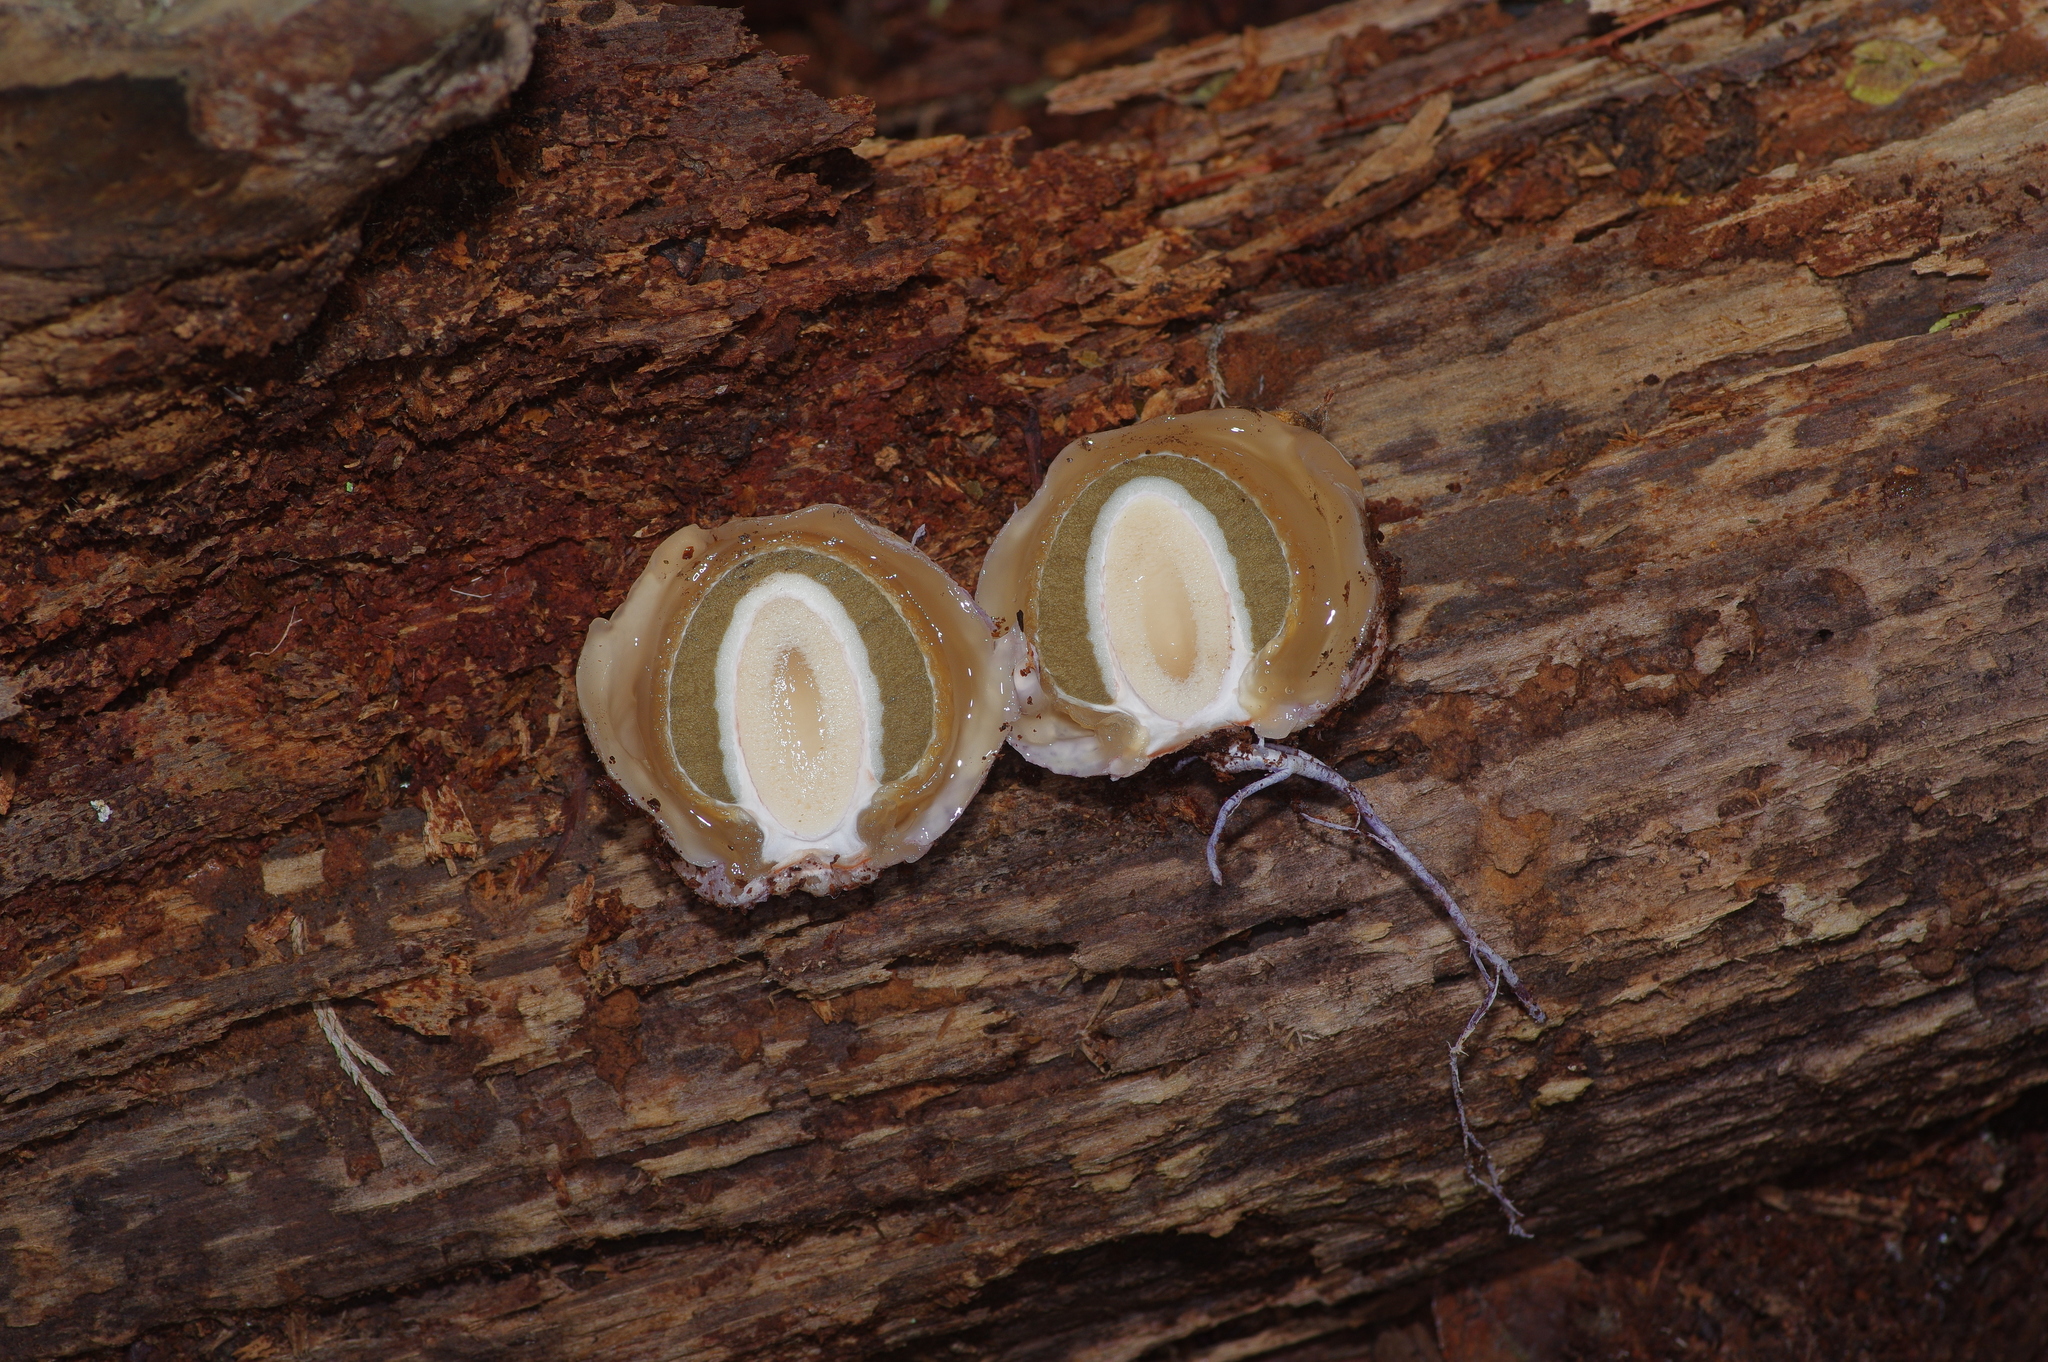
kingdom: Fungi
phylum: Basidiomycota
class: Agaricomycetes
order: Phallales
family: Phallaceae
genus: Phallus
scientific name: Phallus ravenelii
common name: Ravenel's stinkhorn
